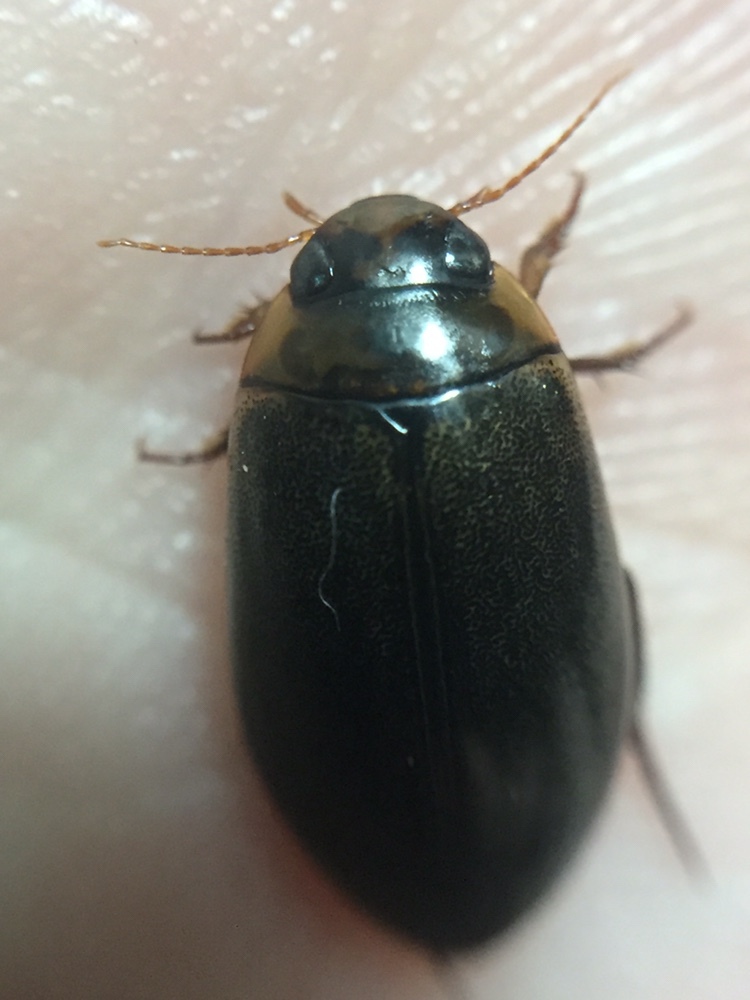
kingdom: Animalia
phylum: Arthropoda
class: Insecta
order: Coleoptera
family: Dytiscidae
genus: Rhantus
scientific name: Rhantus suturalis
